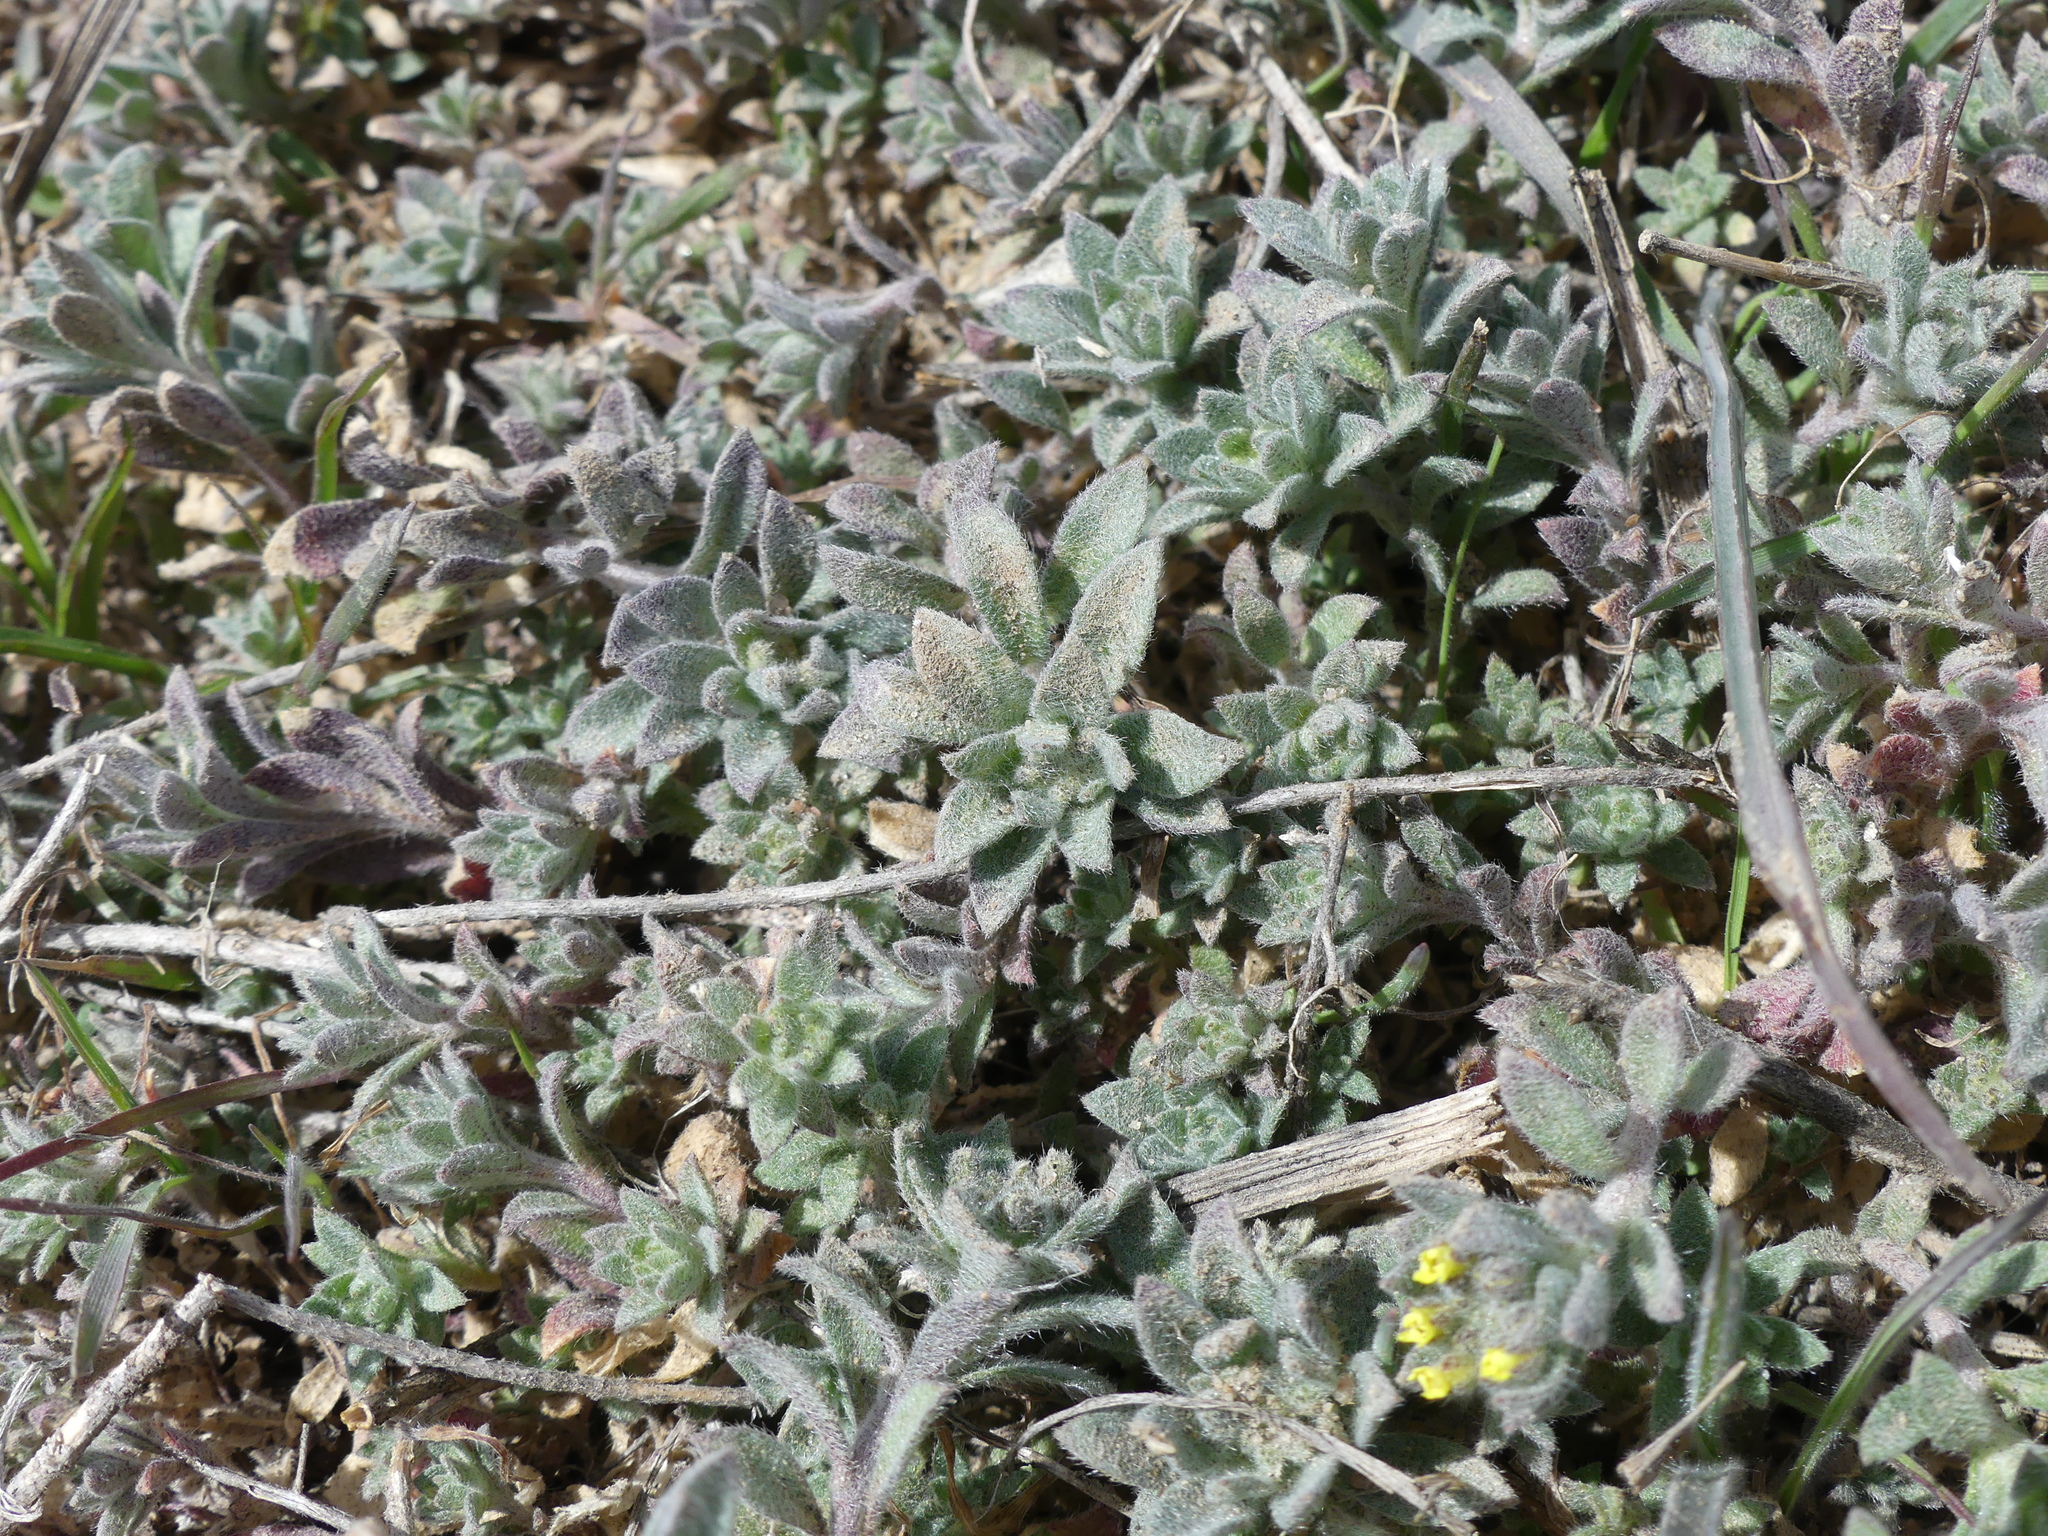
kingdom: Plantae
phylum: Tracheophyta
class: Magnoliopsida
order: Brassicales
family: Brassicaceae
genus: Alyssum
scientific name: Alyssum simplex
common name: Alyssum
